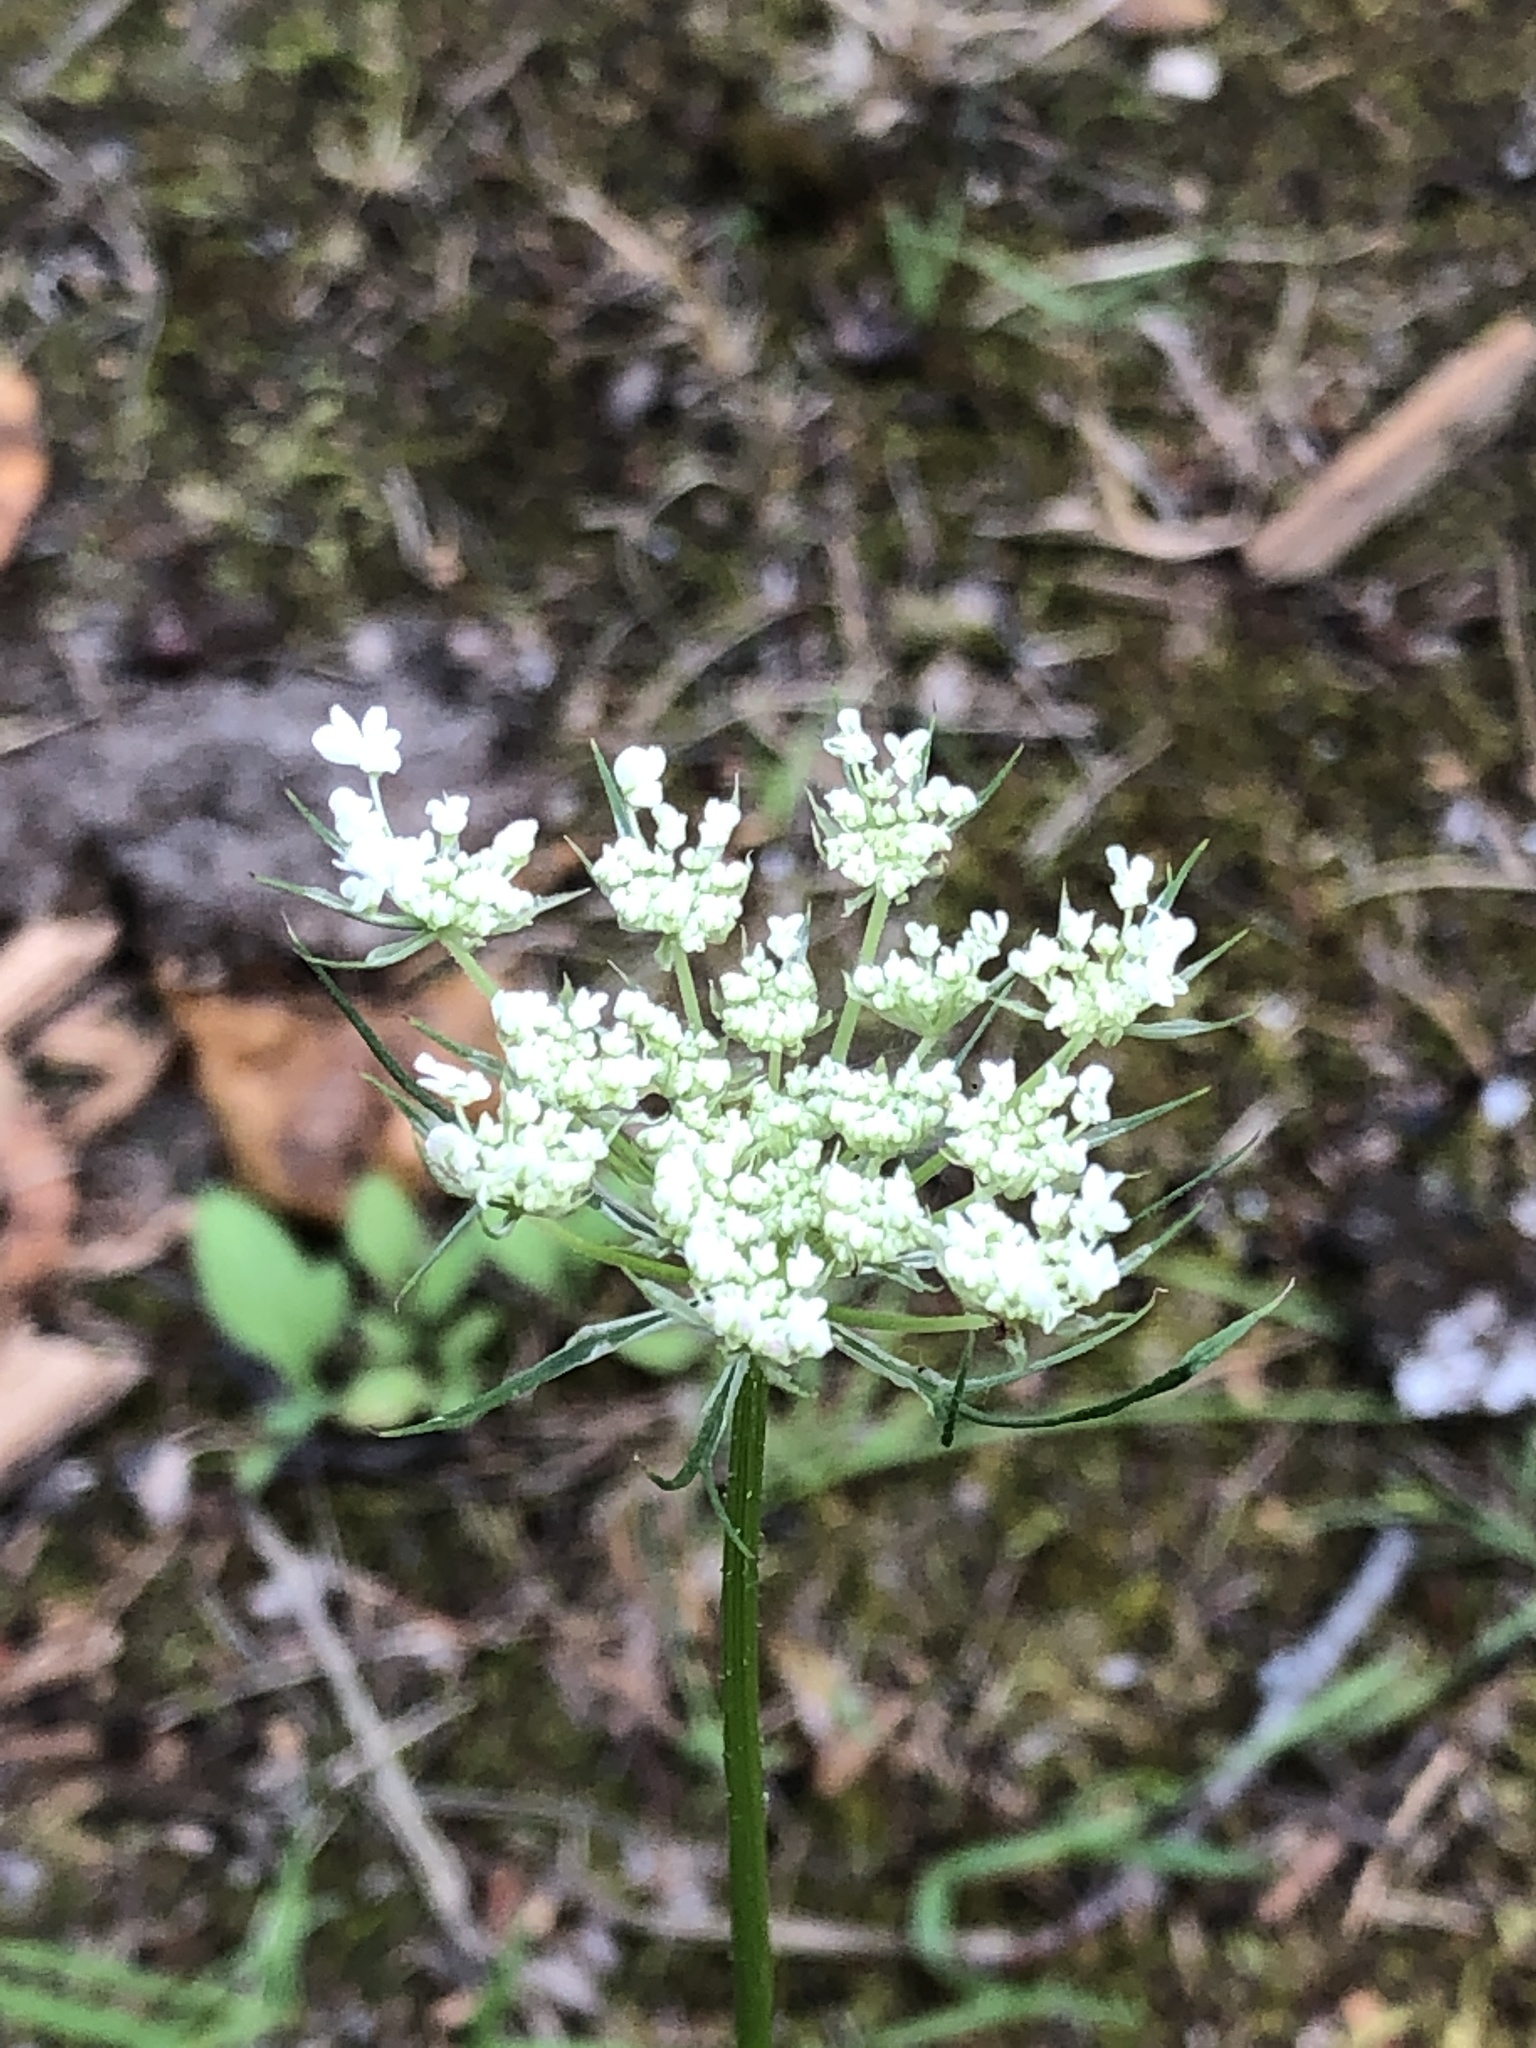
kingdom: Plantae
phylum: Tracheophyta
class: Magnoliopsida
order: Apiales
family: Apiaceae
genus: Daucus
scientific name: Daucus carota
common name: Wild carrot
